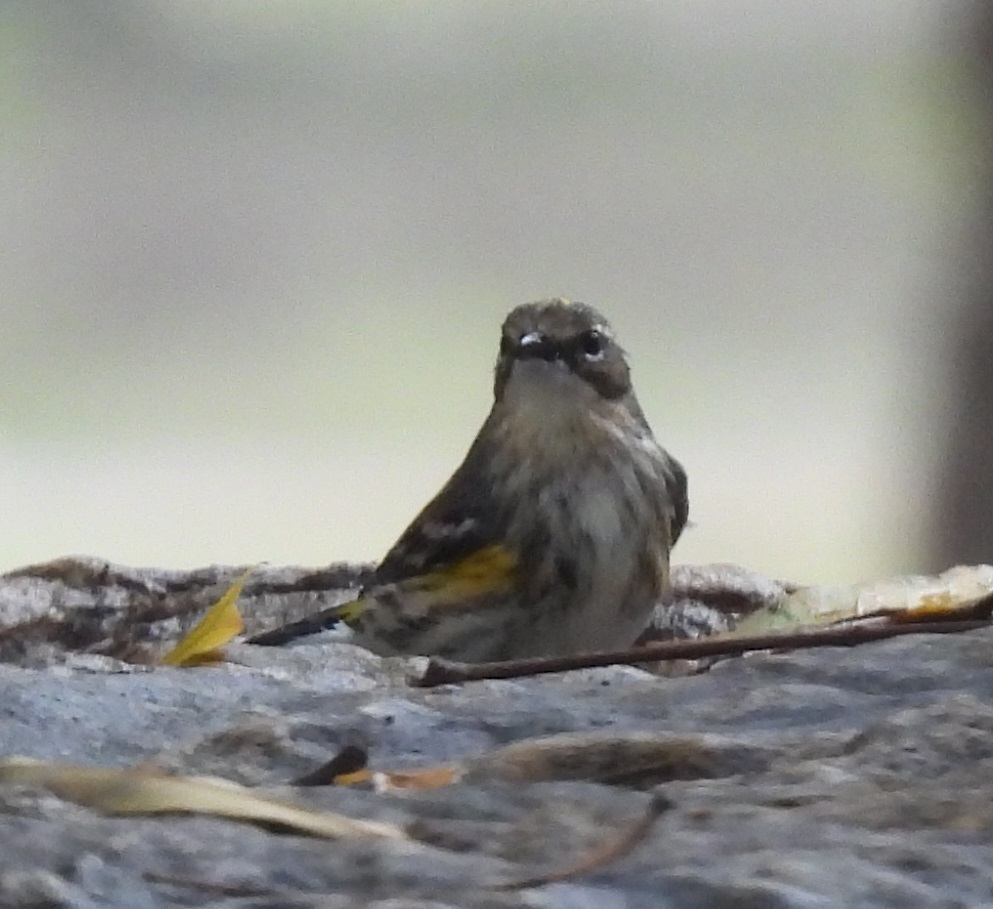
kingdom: Animalia
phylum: Chordata
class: Aves
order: Passeriformes
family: Parulidae
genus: Setophaga
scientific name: Setophaga coronata
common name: Myrtle warbler
